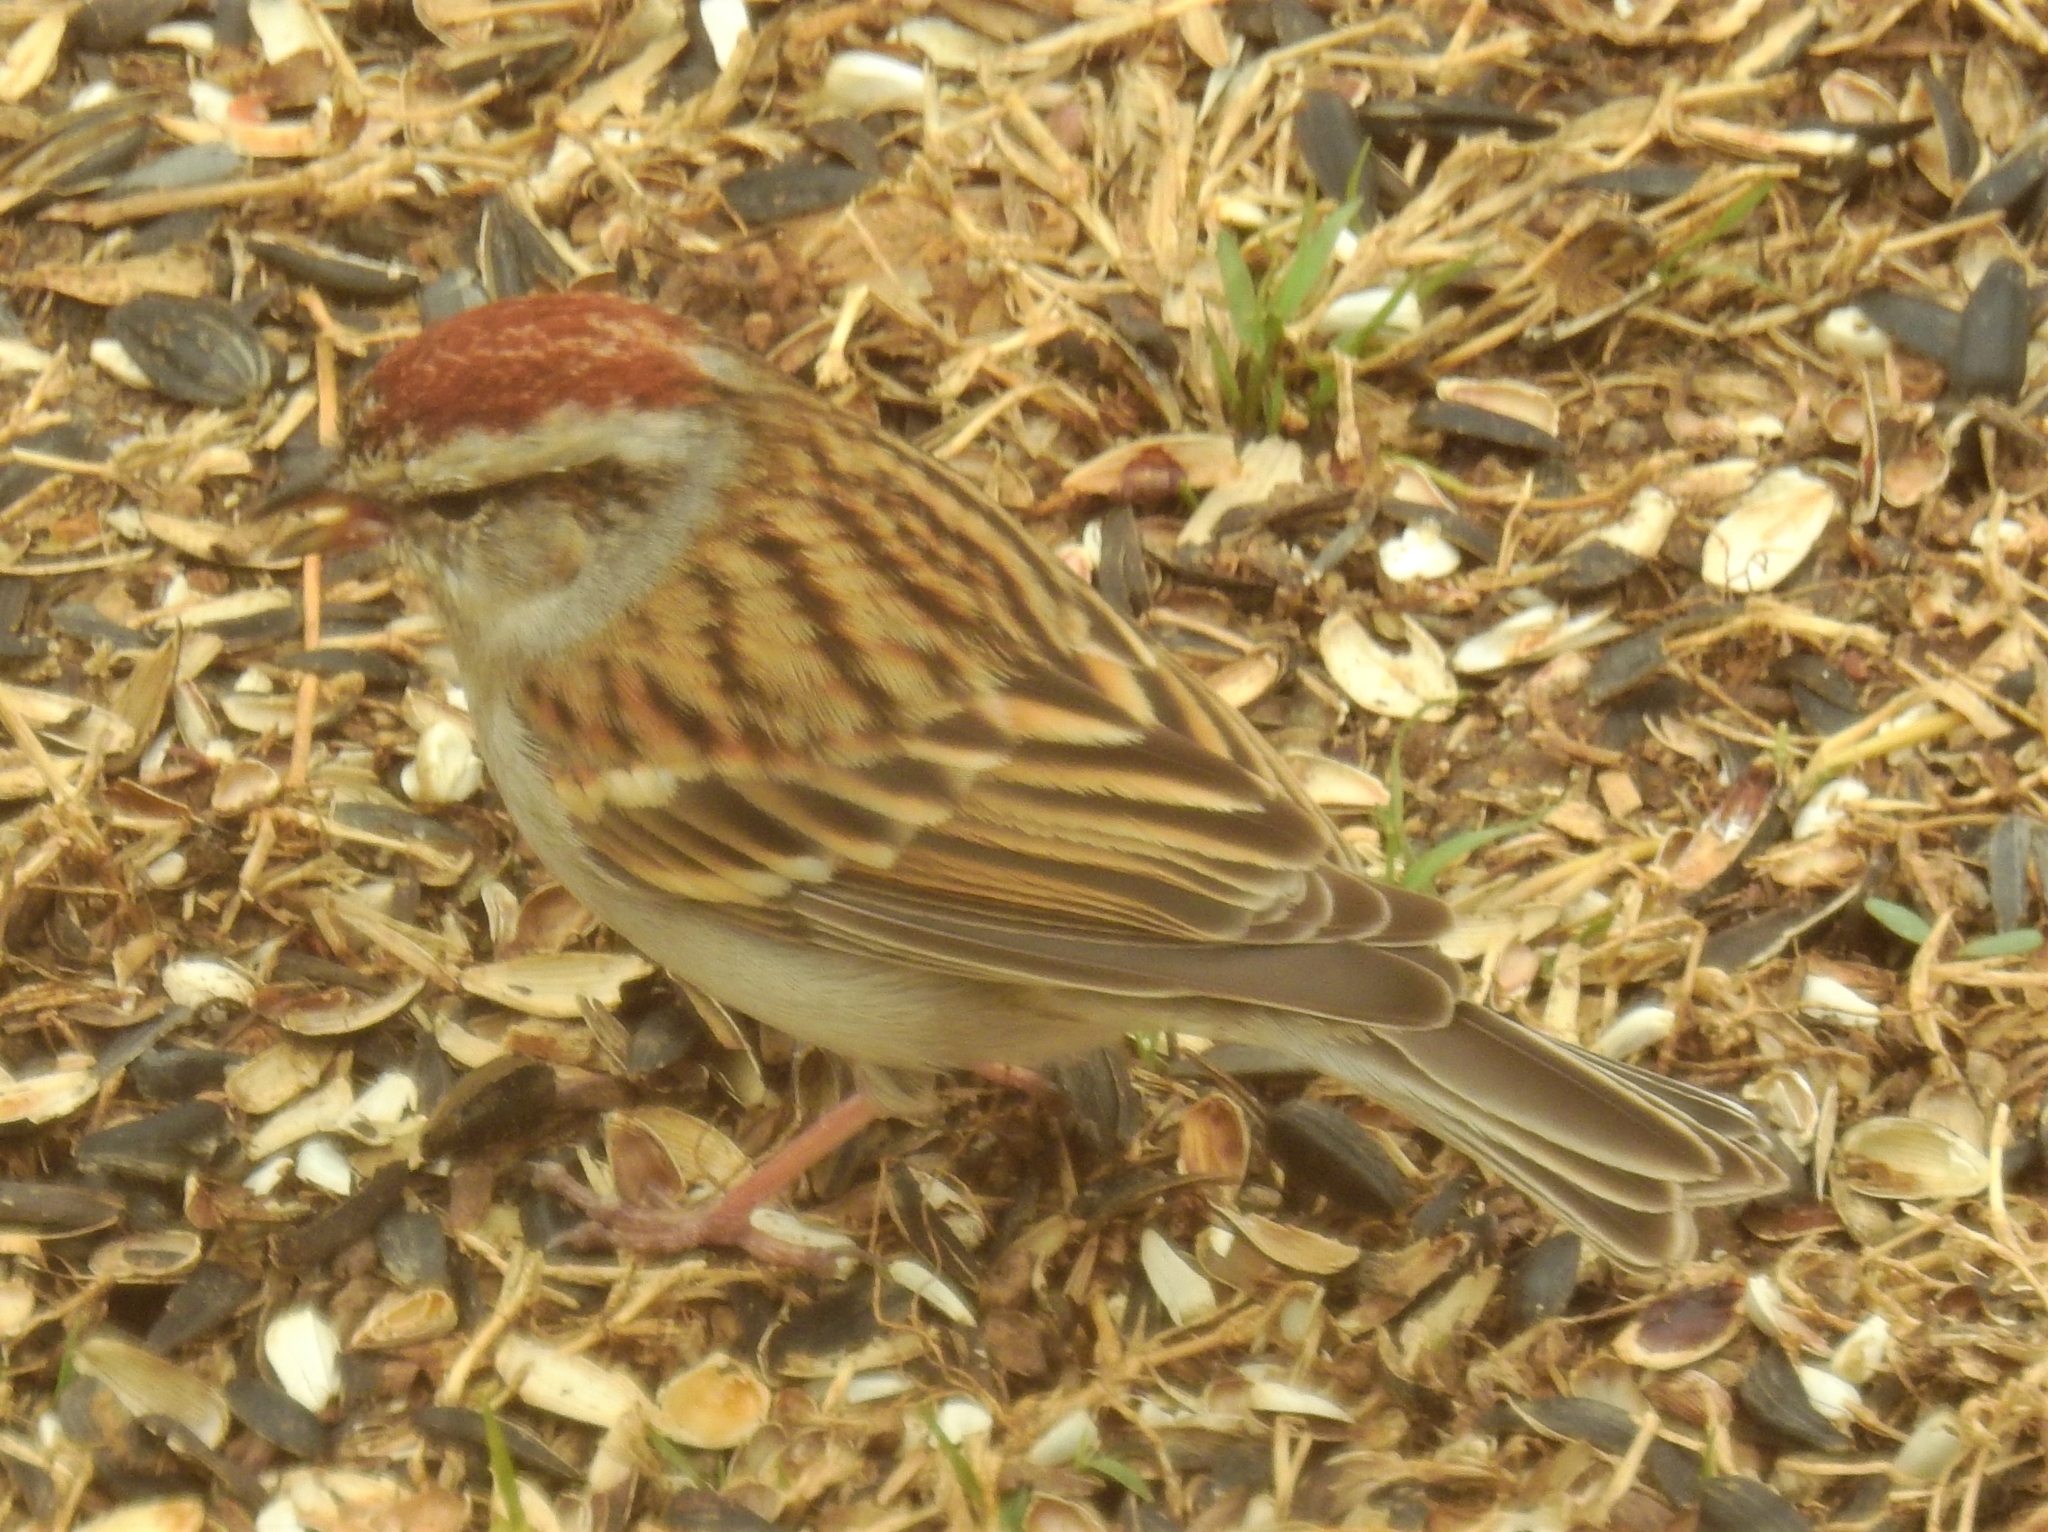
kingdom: Animalia
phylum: Chordata
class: Aves
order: Passeriformes
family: Passerellidae
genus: Spizella
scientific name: Spizella passerina
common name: Chipping sparrow
